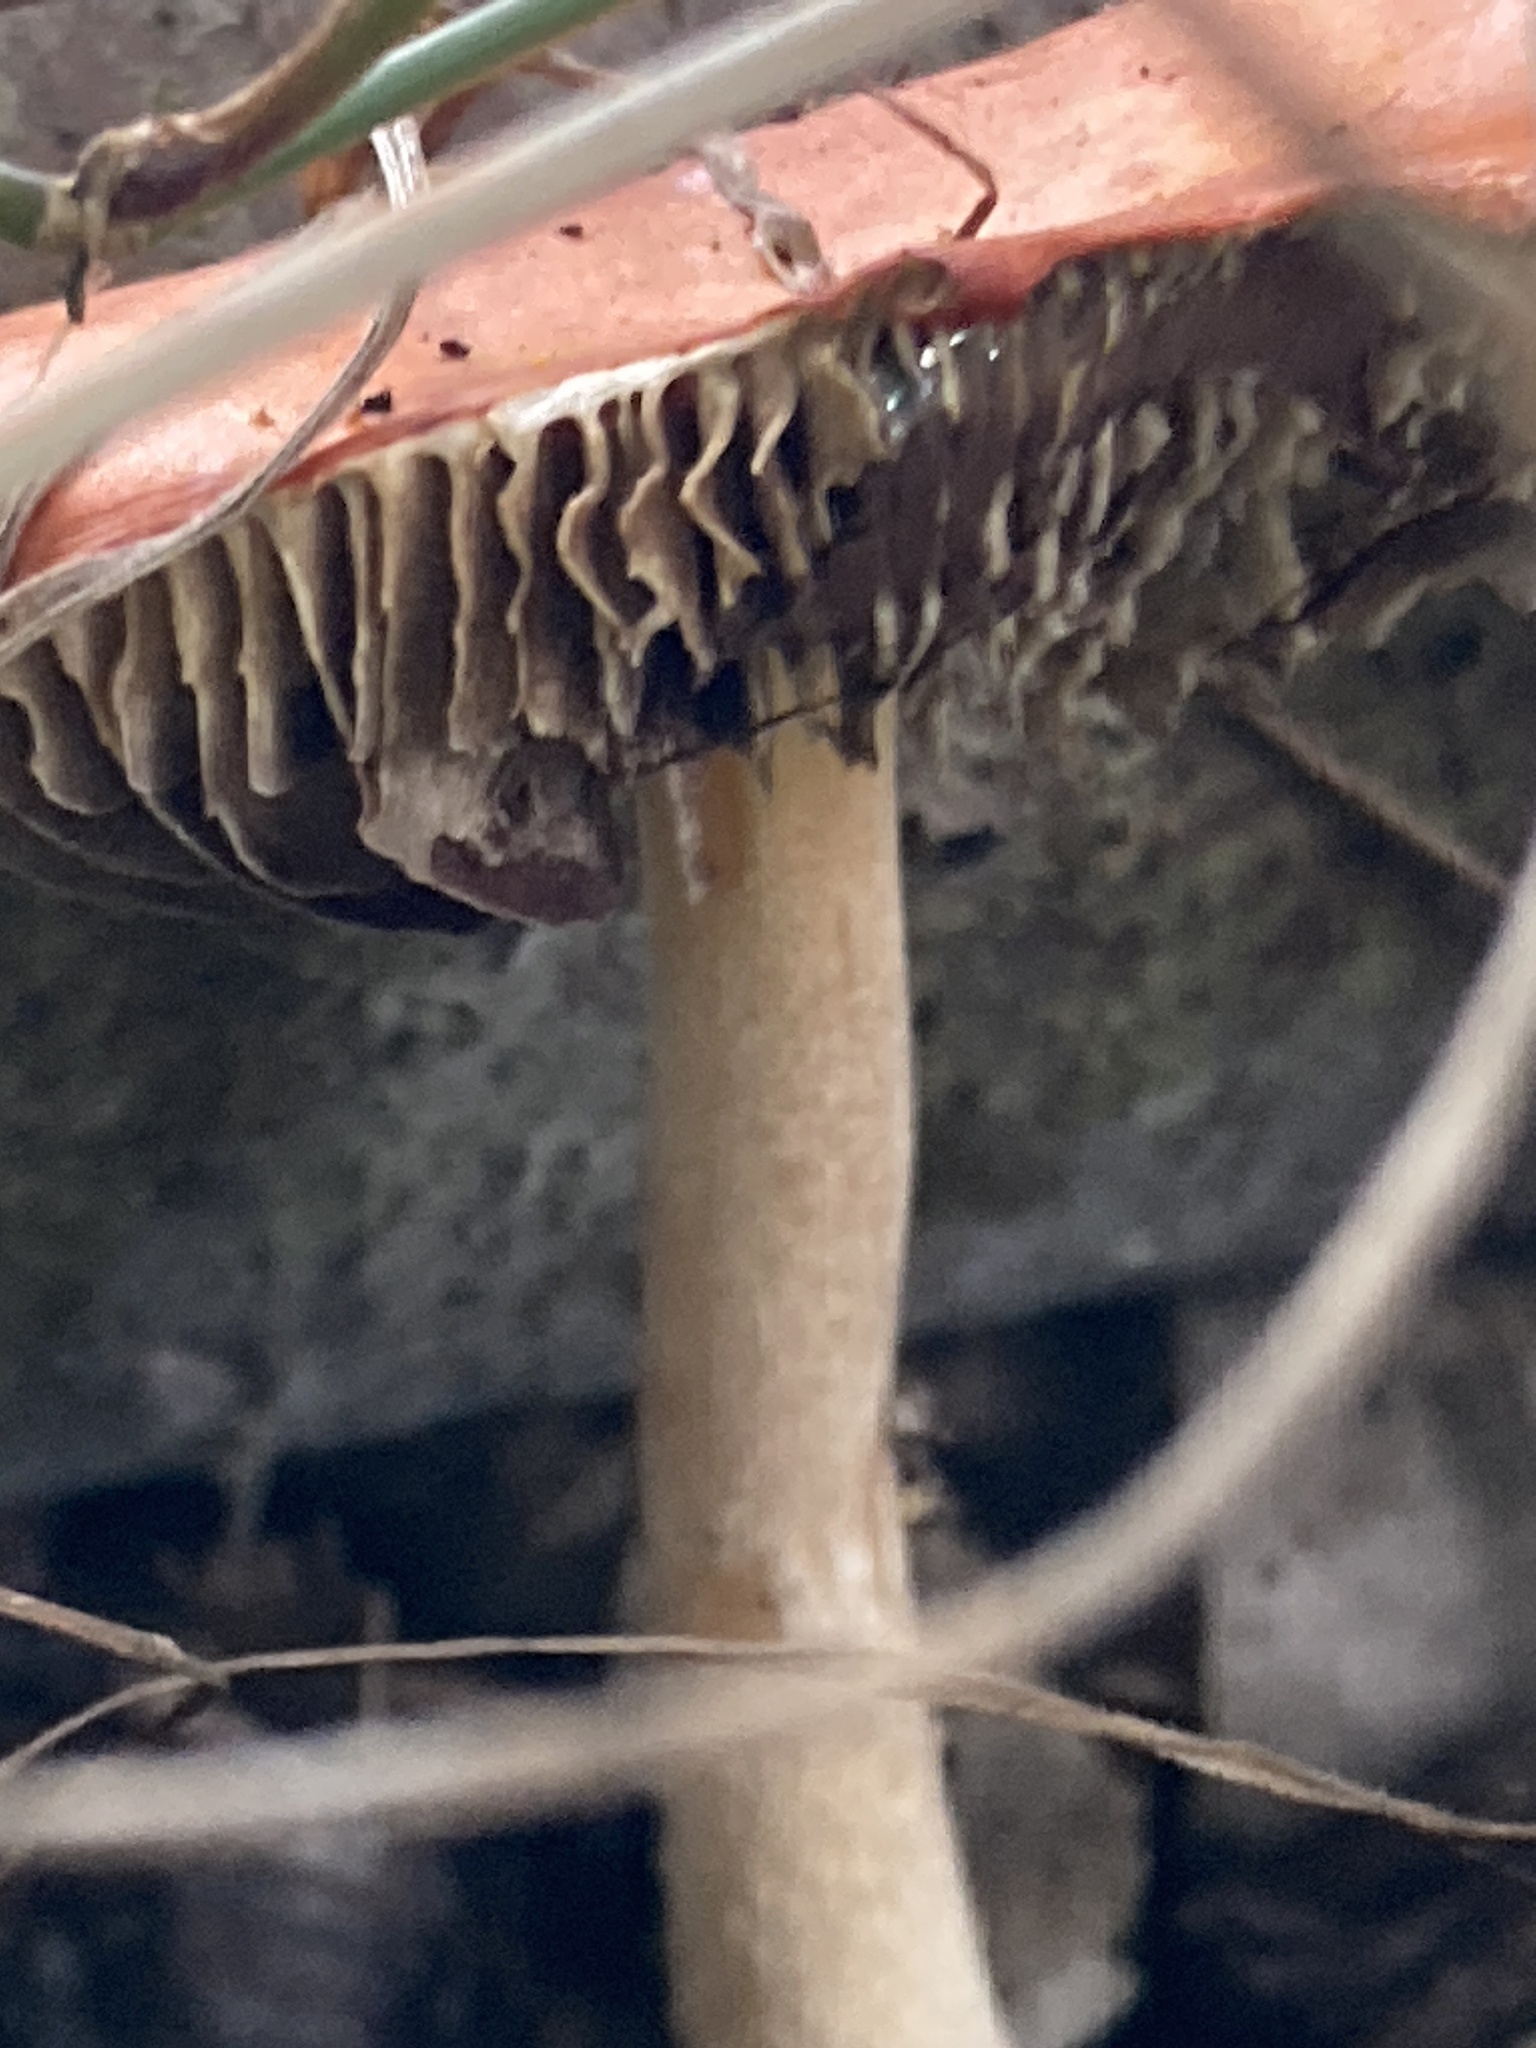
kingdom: Fungi
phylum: Basidiomycota
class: Agaricomycetes
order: Agaricales
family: Strophariaceae
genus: Leratiomyces
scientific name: Leratiomyces ceres
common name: Redlead roundhead
